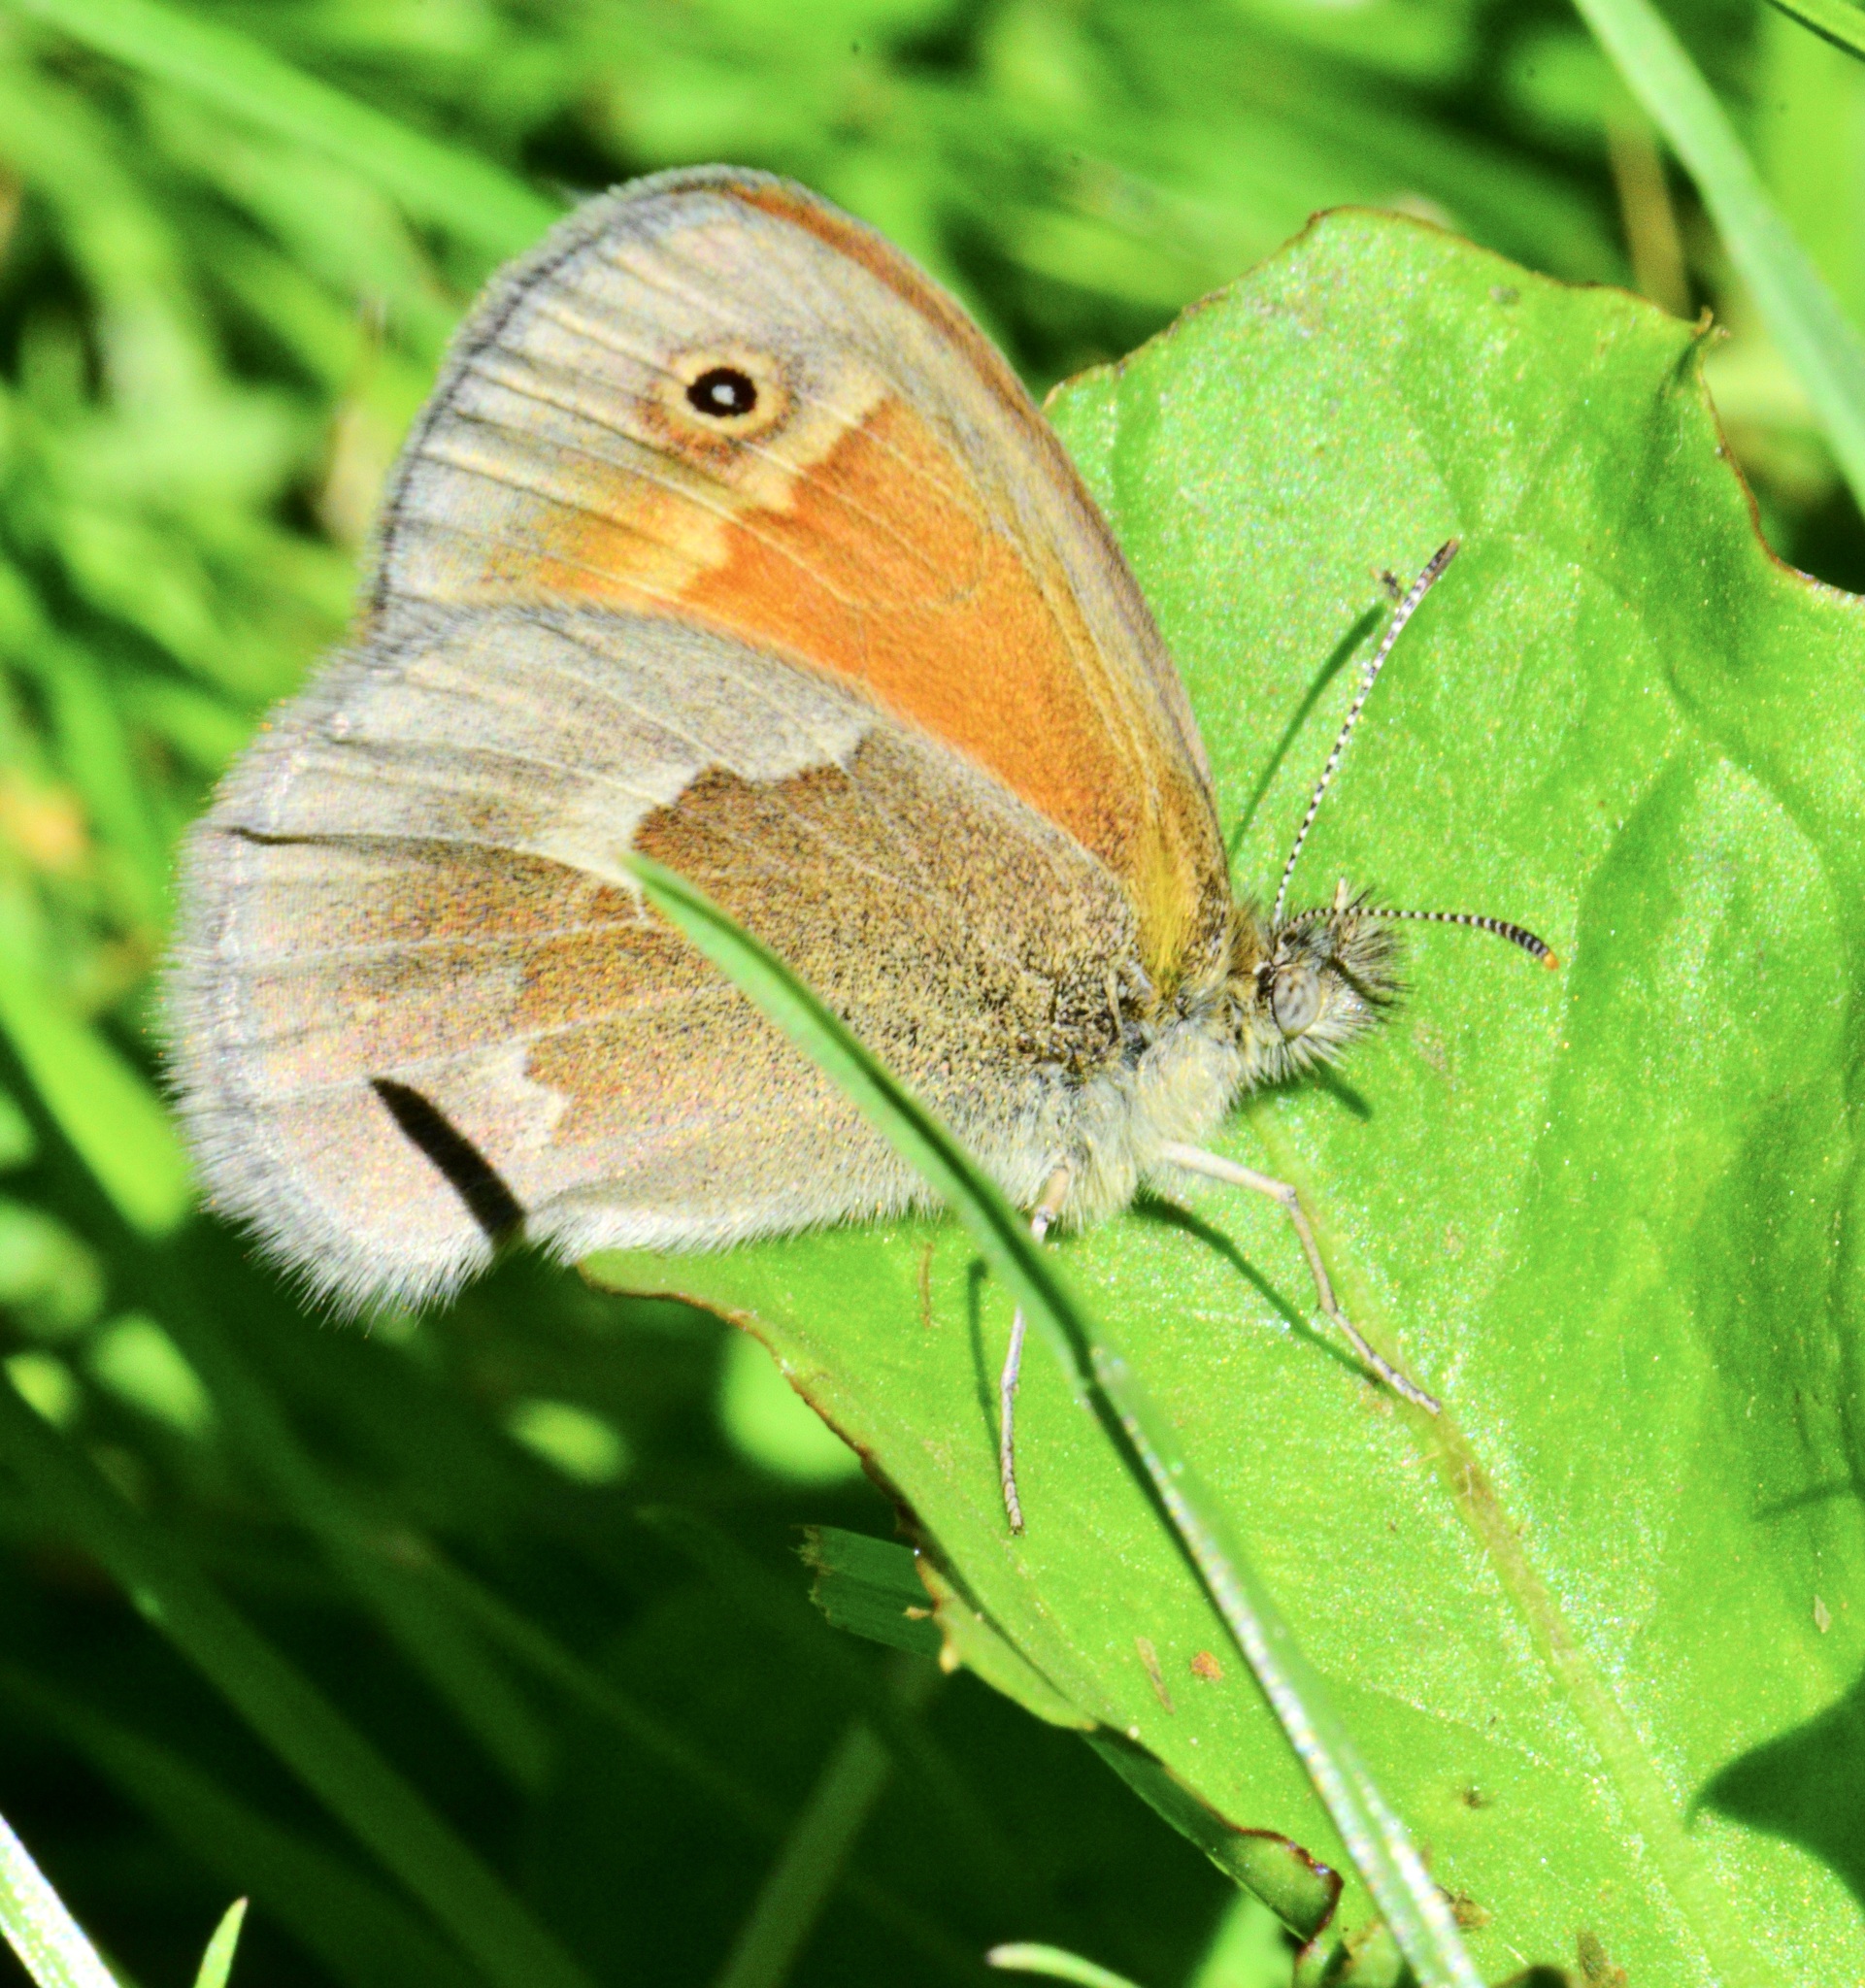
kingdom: Animalia
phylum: Arthropoda
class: Insecta
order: Lepidoptera
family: Nymphalidae
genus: Coenonympha
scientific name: Coenonympha california
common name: Common ringlet
